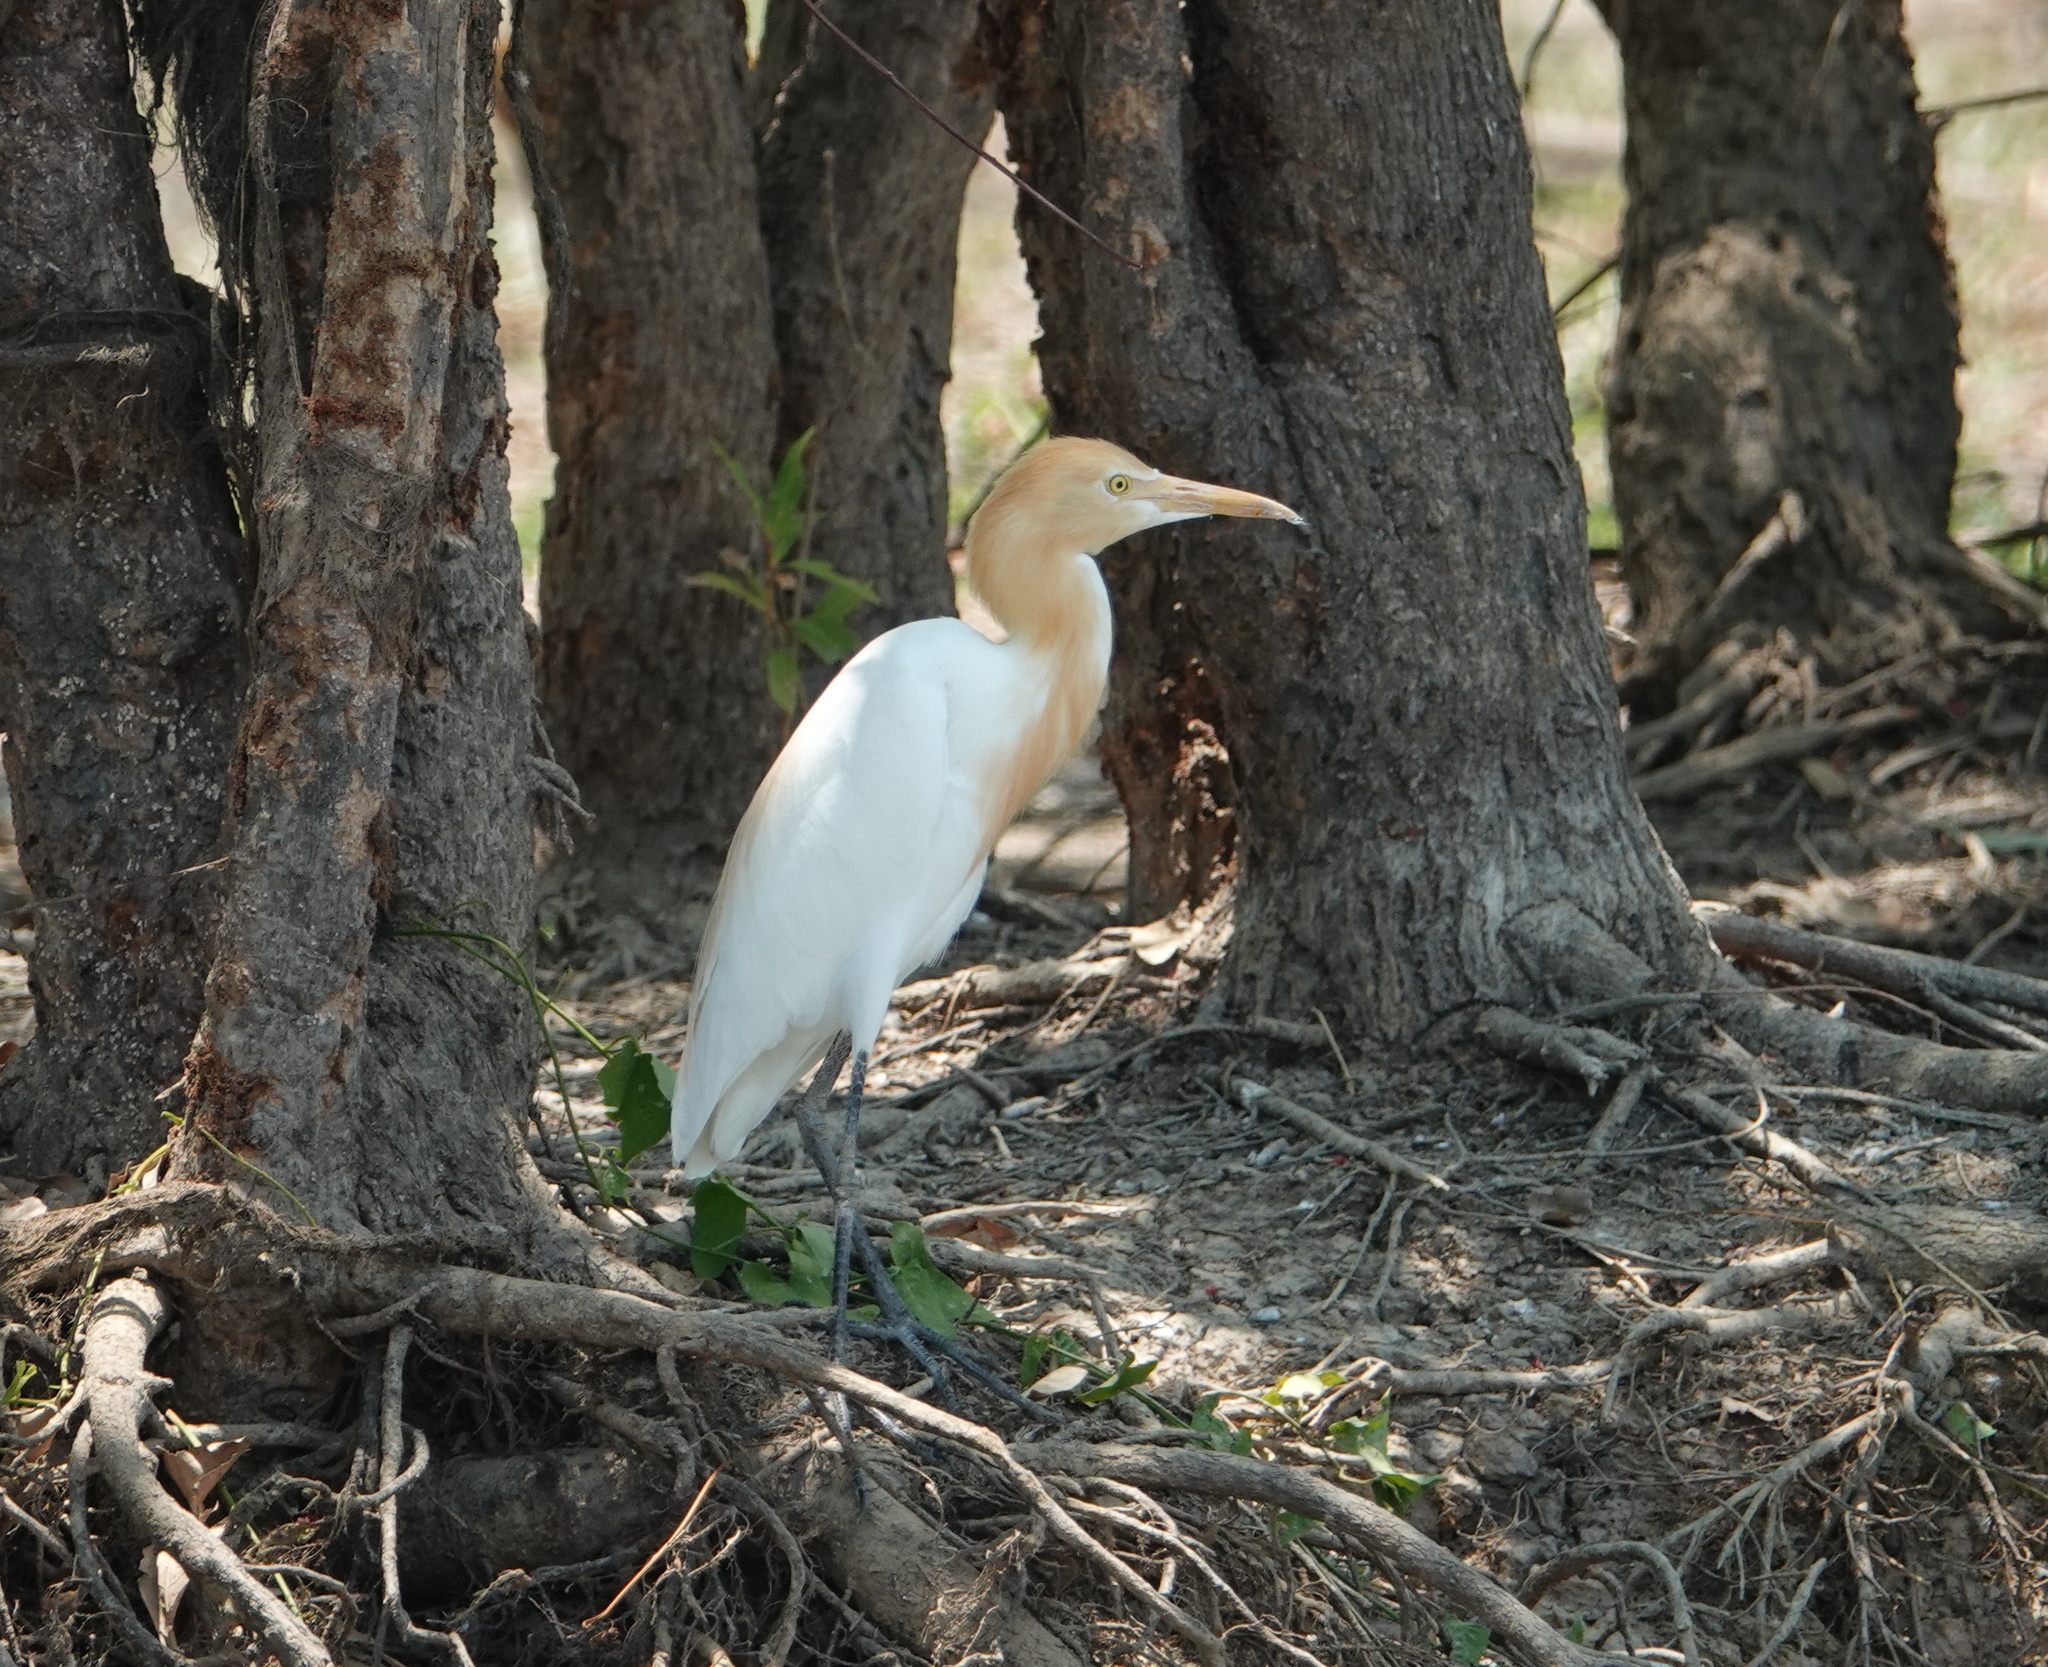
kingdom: Animalia
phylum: Chordata
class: Aves
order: Pelecaniformes
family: Ardeidae
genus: Bubulcus
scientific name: Bubulcus coromandus
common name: Eastern cattle egret
